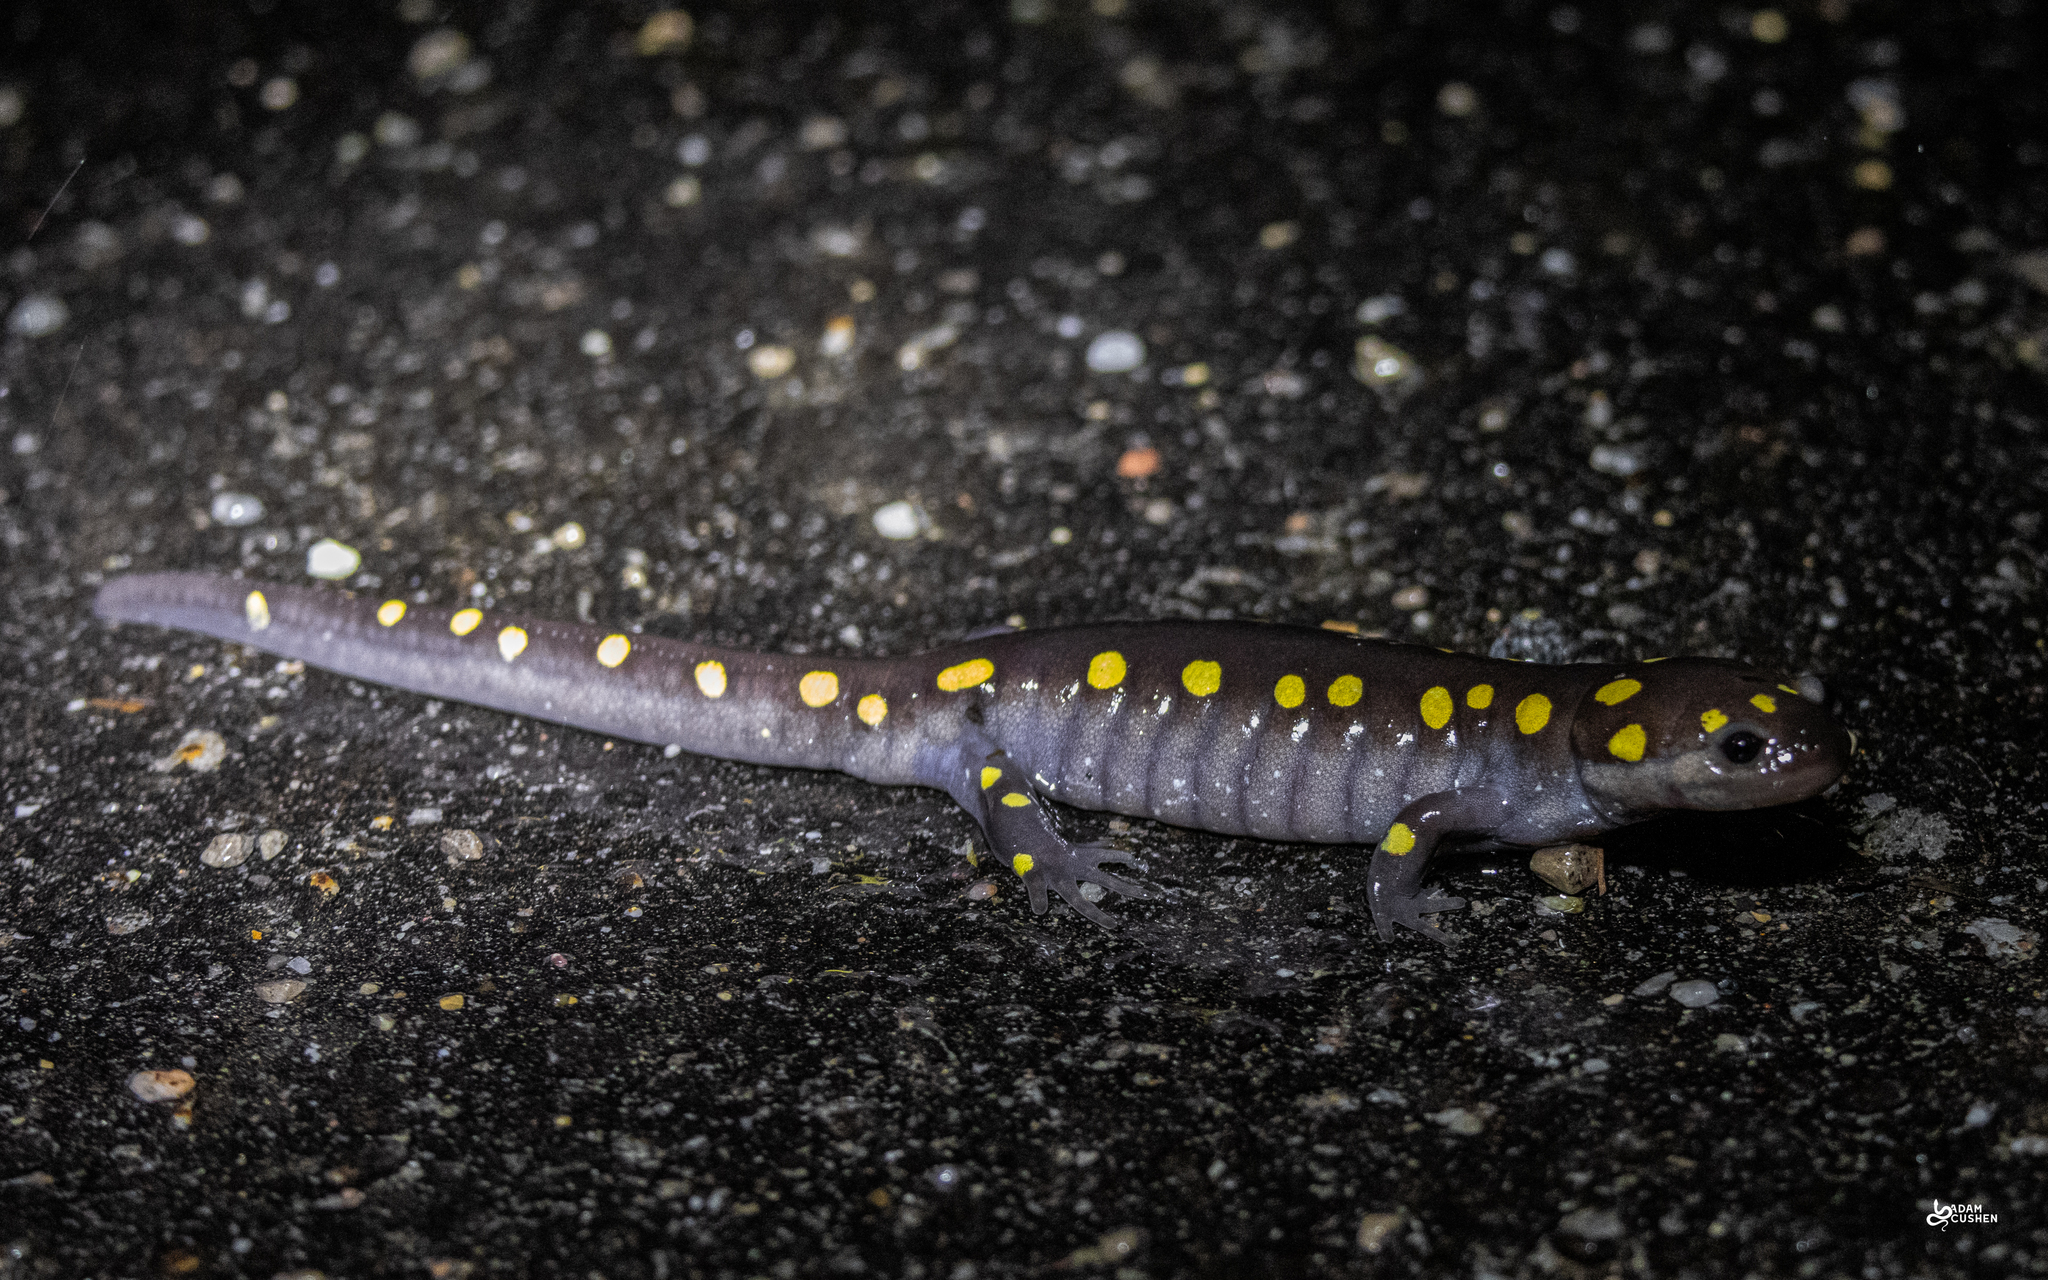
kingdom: Animalia
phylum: Chordata
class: Amphibia
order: Caudata
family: Ambystomatidae
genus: Ambystoma
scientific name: Ambystoma maculatum
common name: Spotted salamander
